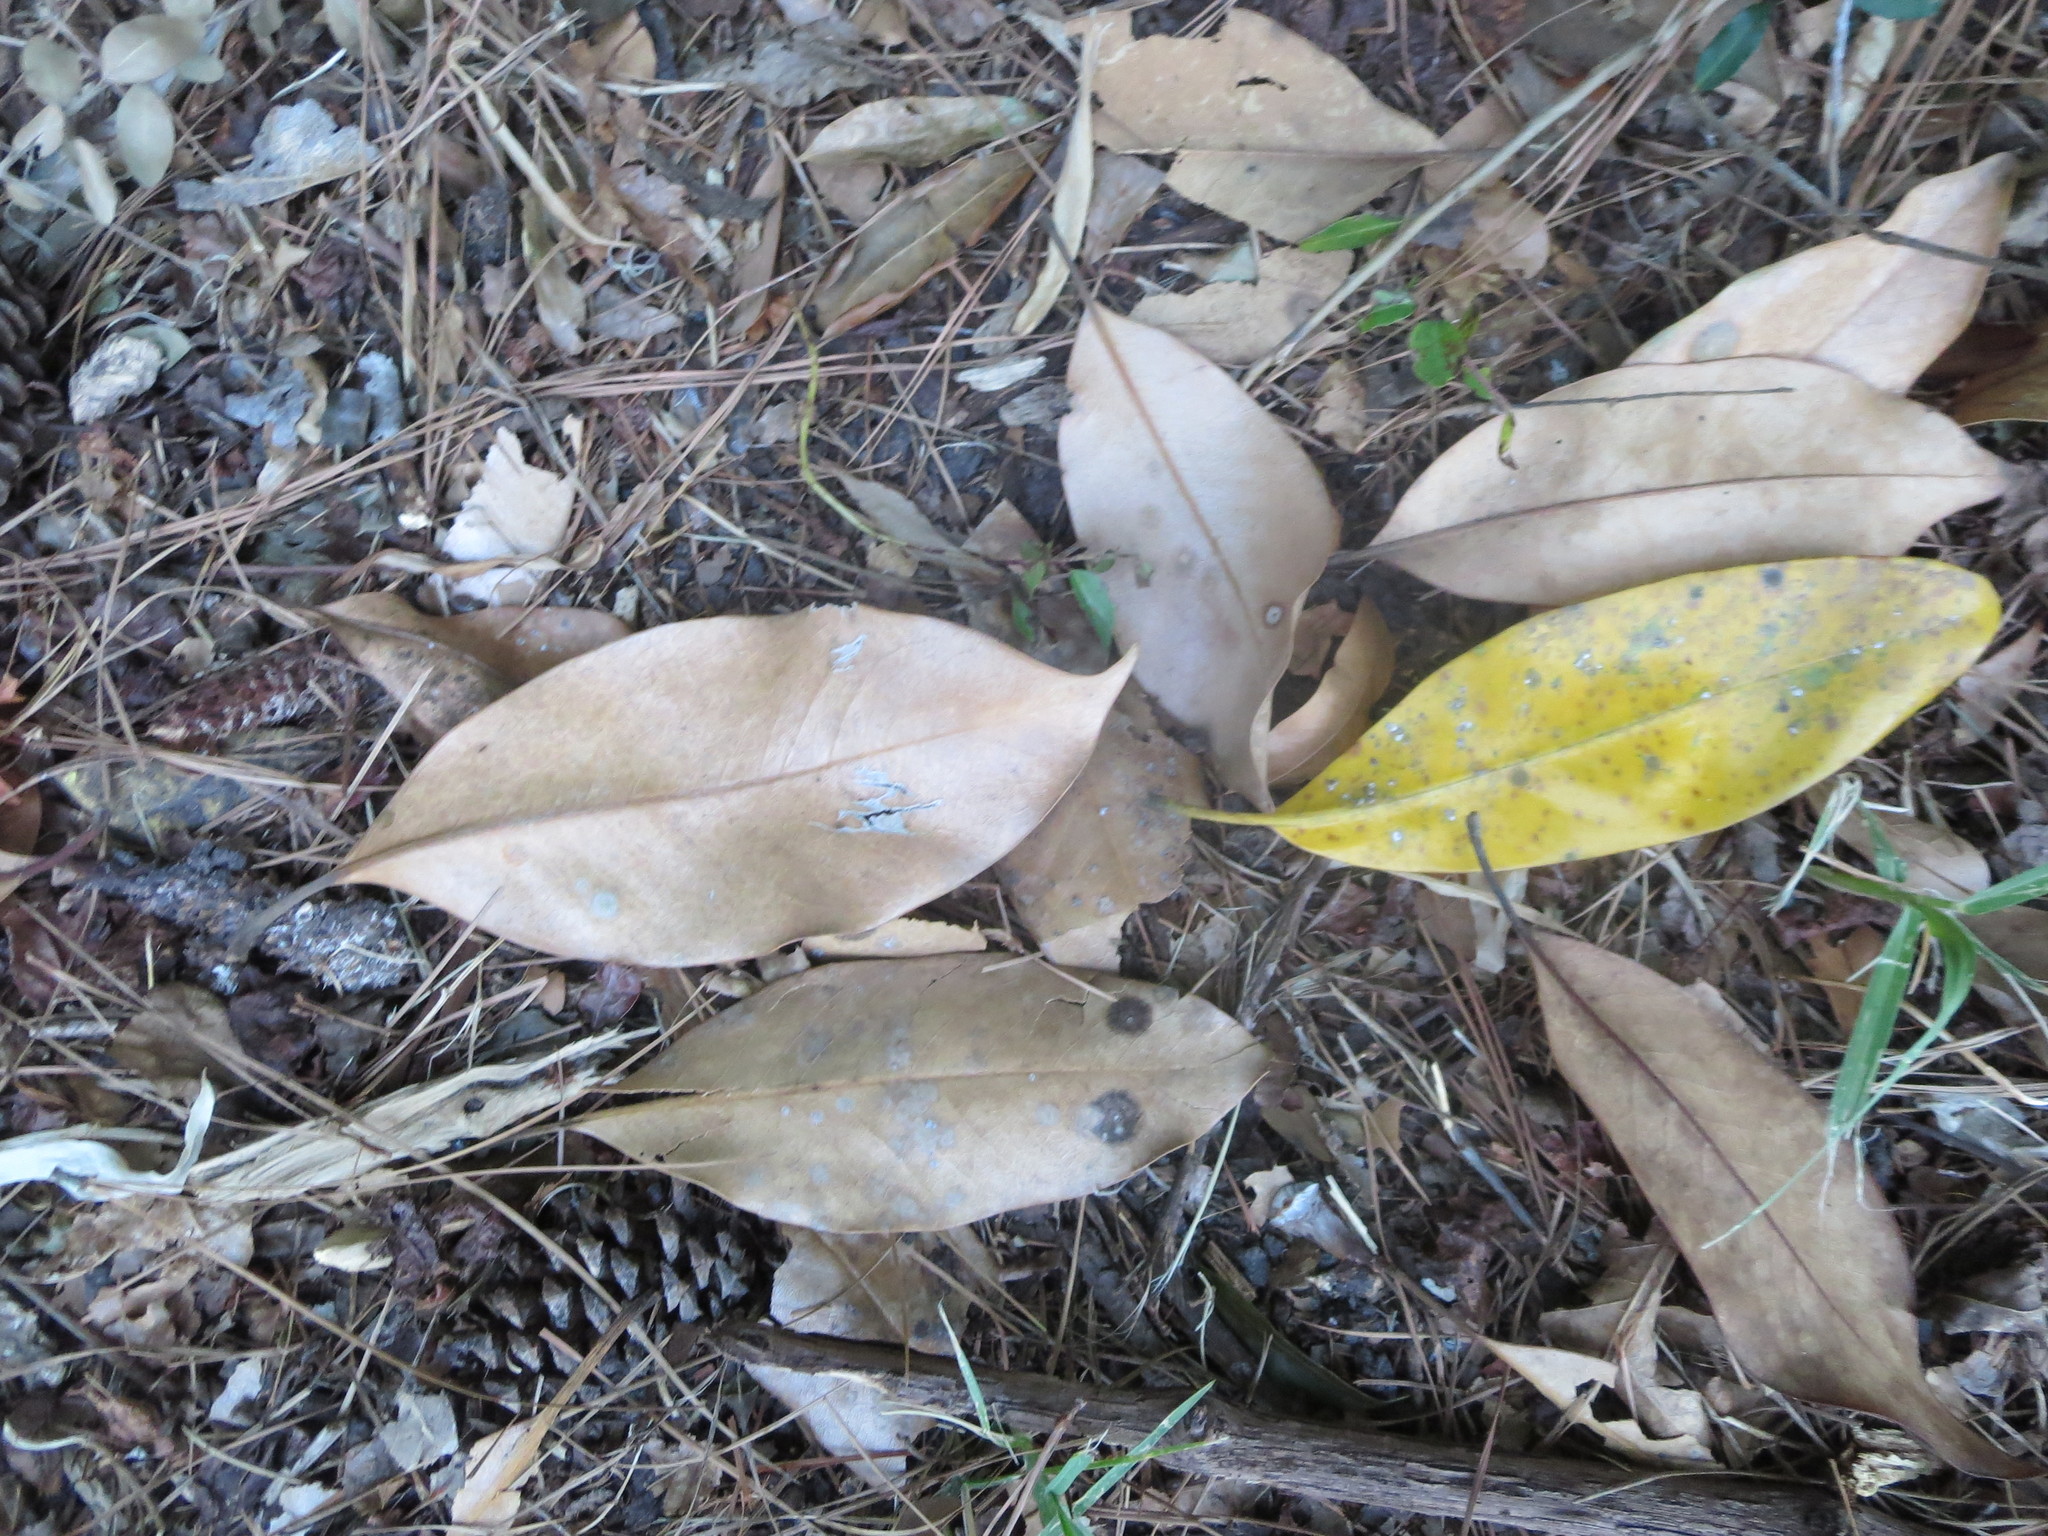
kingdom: Plantae
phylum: Tracheophyta
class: Magnoliopsida
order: Magnoliales
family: Magnoliaceae
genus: Magnolia
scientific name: Magnolia grandiflora
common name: Southern magnolia
